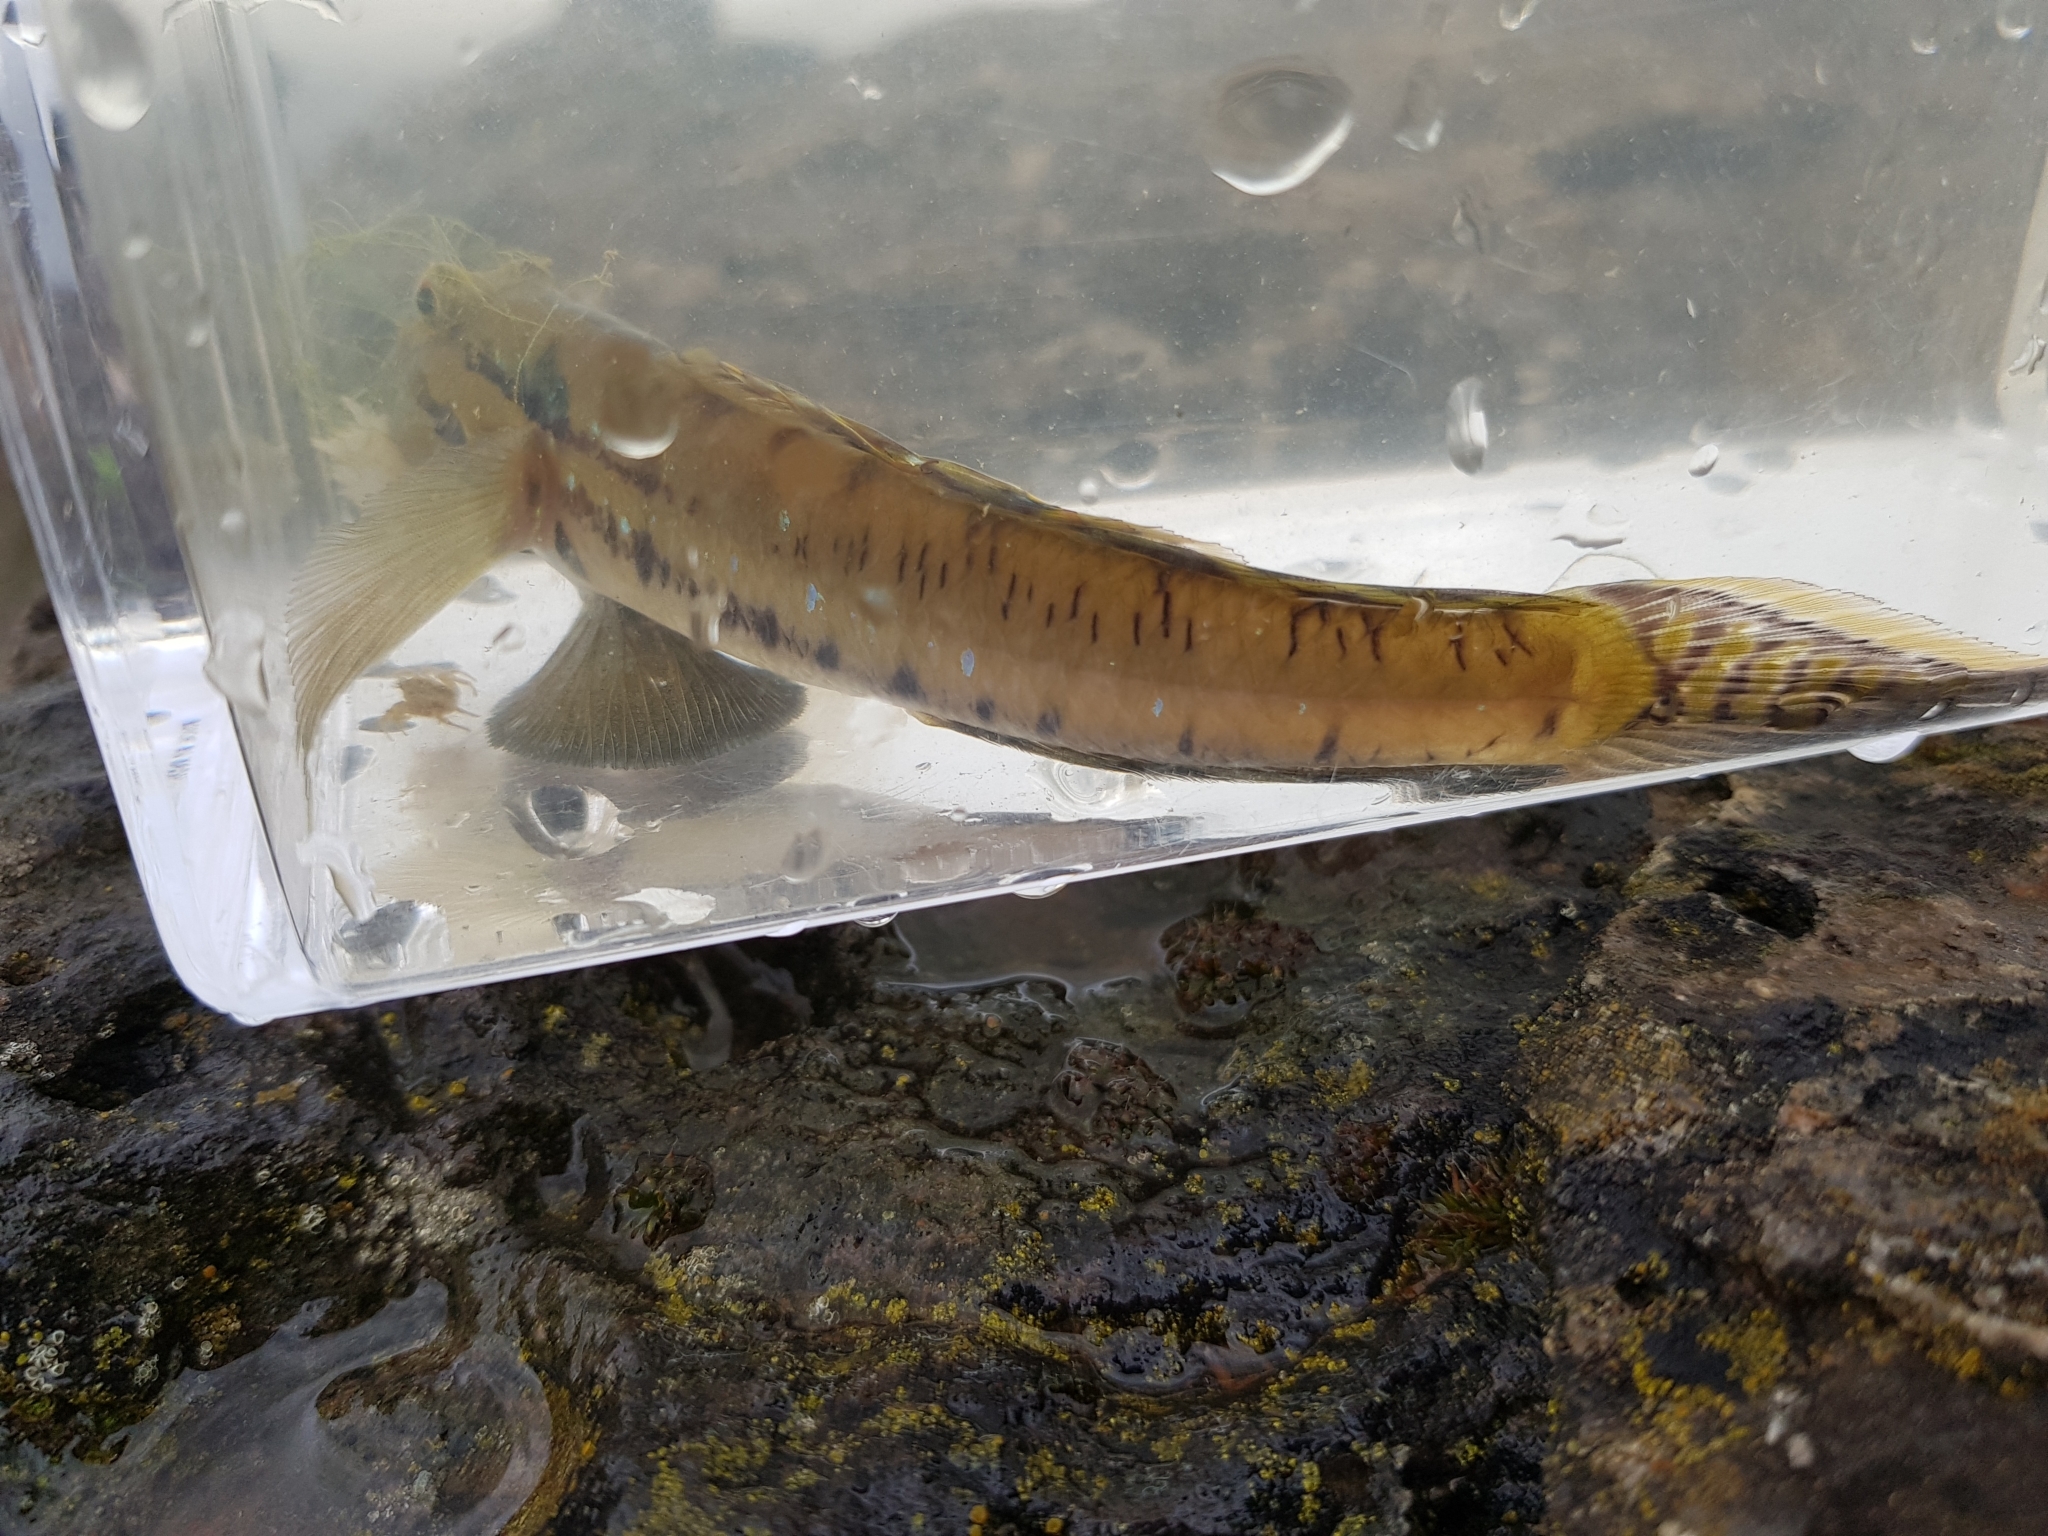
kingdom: Animalia
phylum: Chordata
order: Perciformes
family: Gobiidae
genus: Arenigobius
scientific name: Arenigobius bifrenatus
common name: Bridled goby
